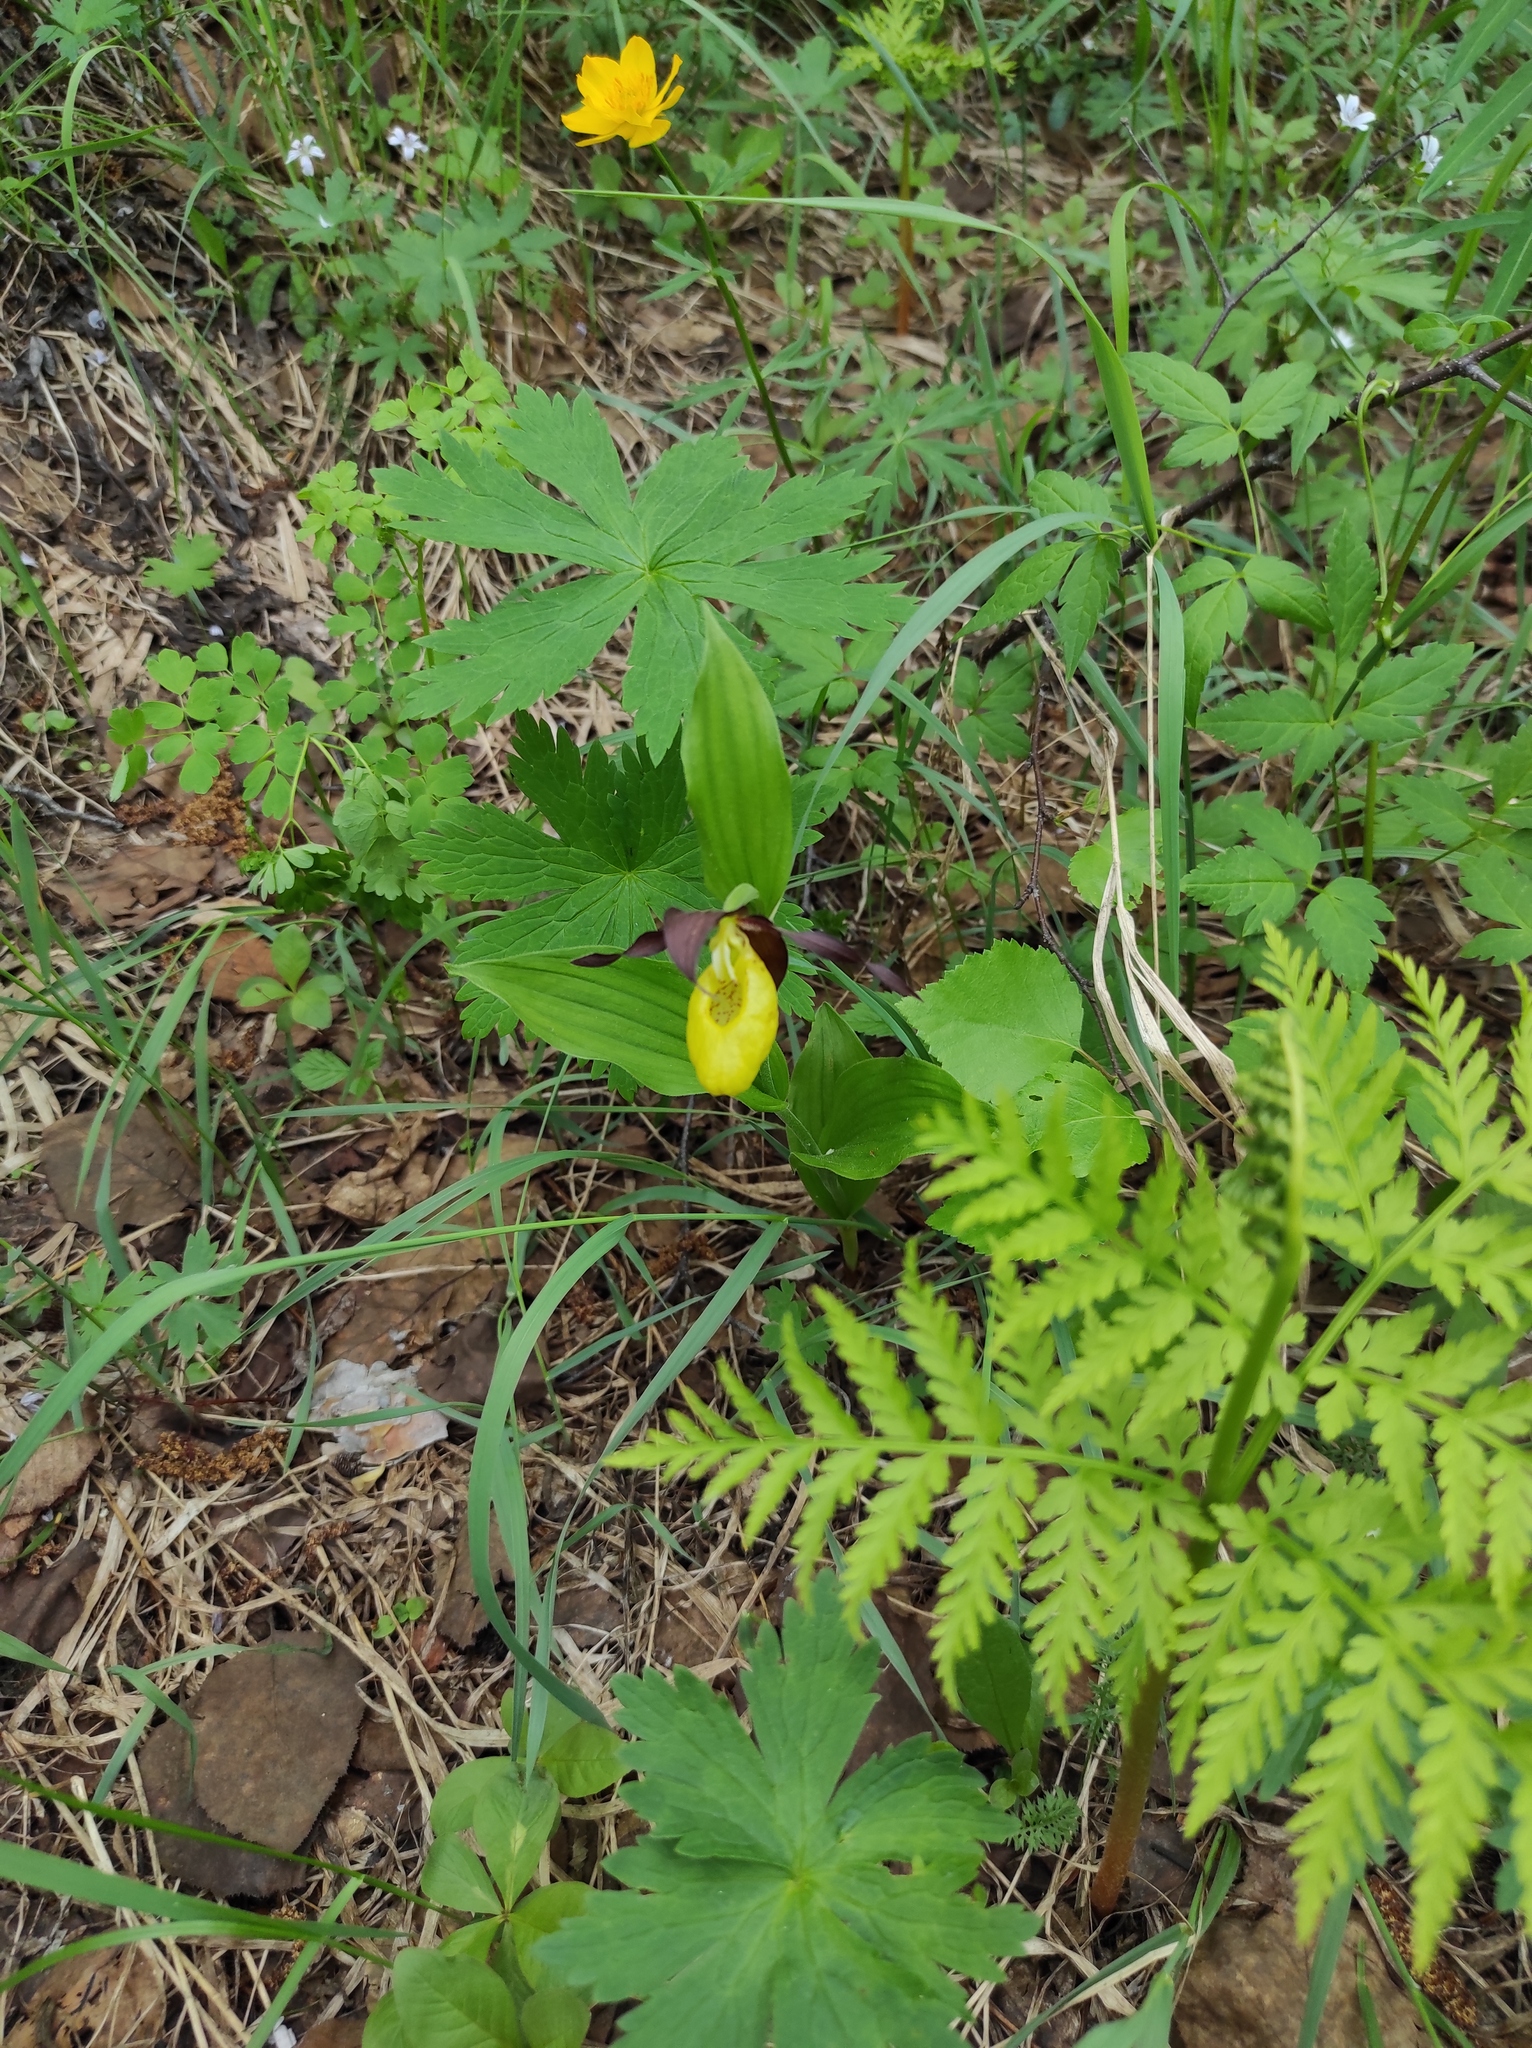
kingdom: Plantae
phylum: Tracheophyta
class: Magnoliopsida
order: Ranunculales
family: Ranunculaceae
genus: Trollius
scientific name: Trollius membranostylis
